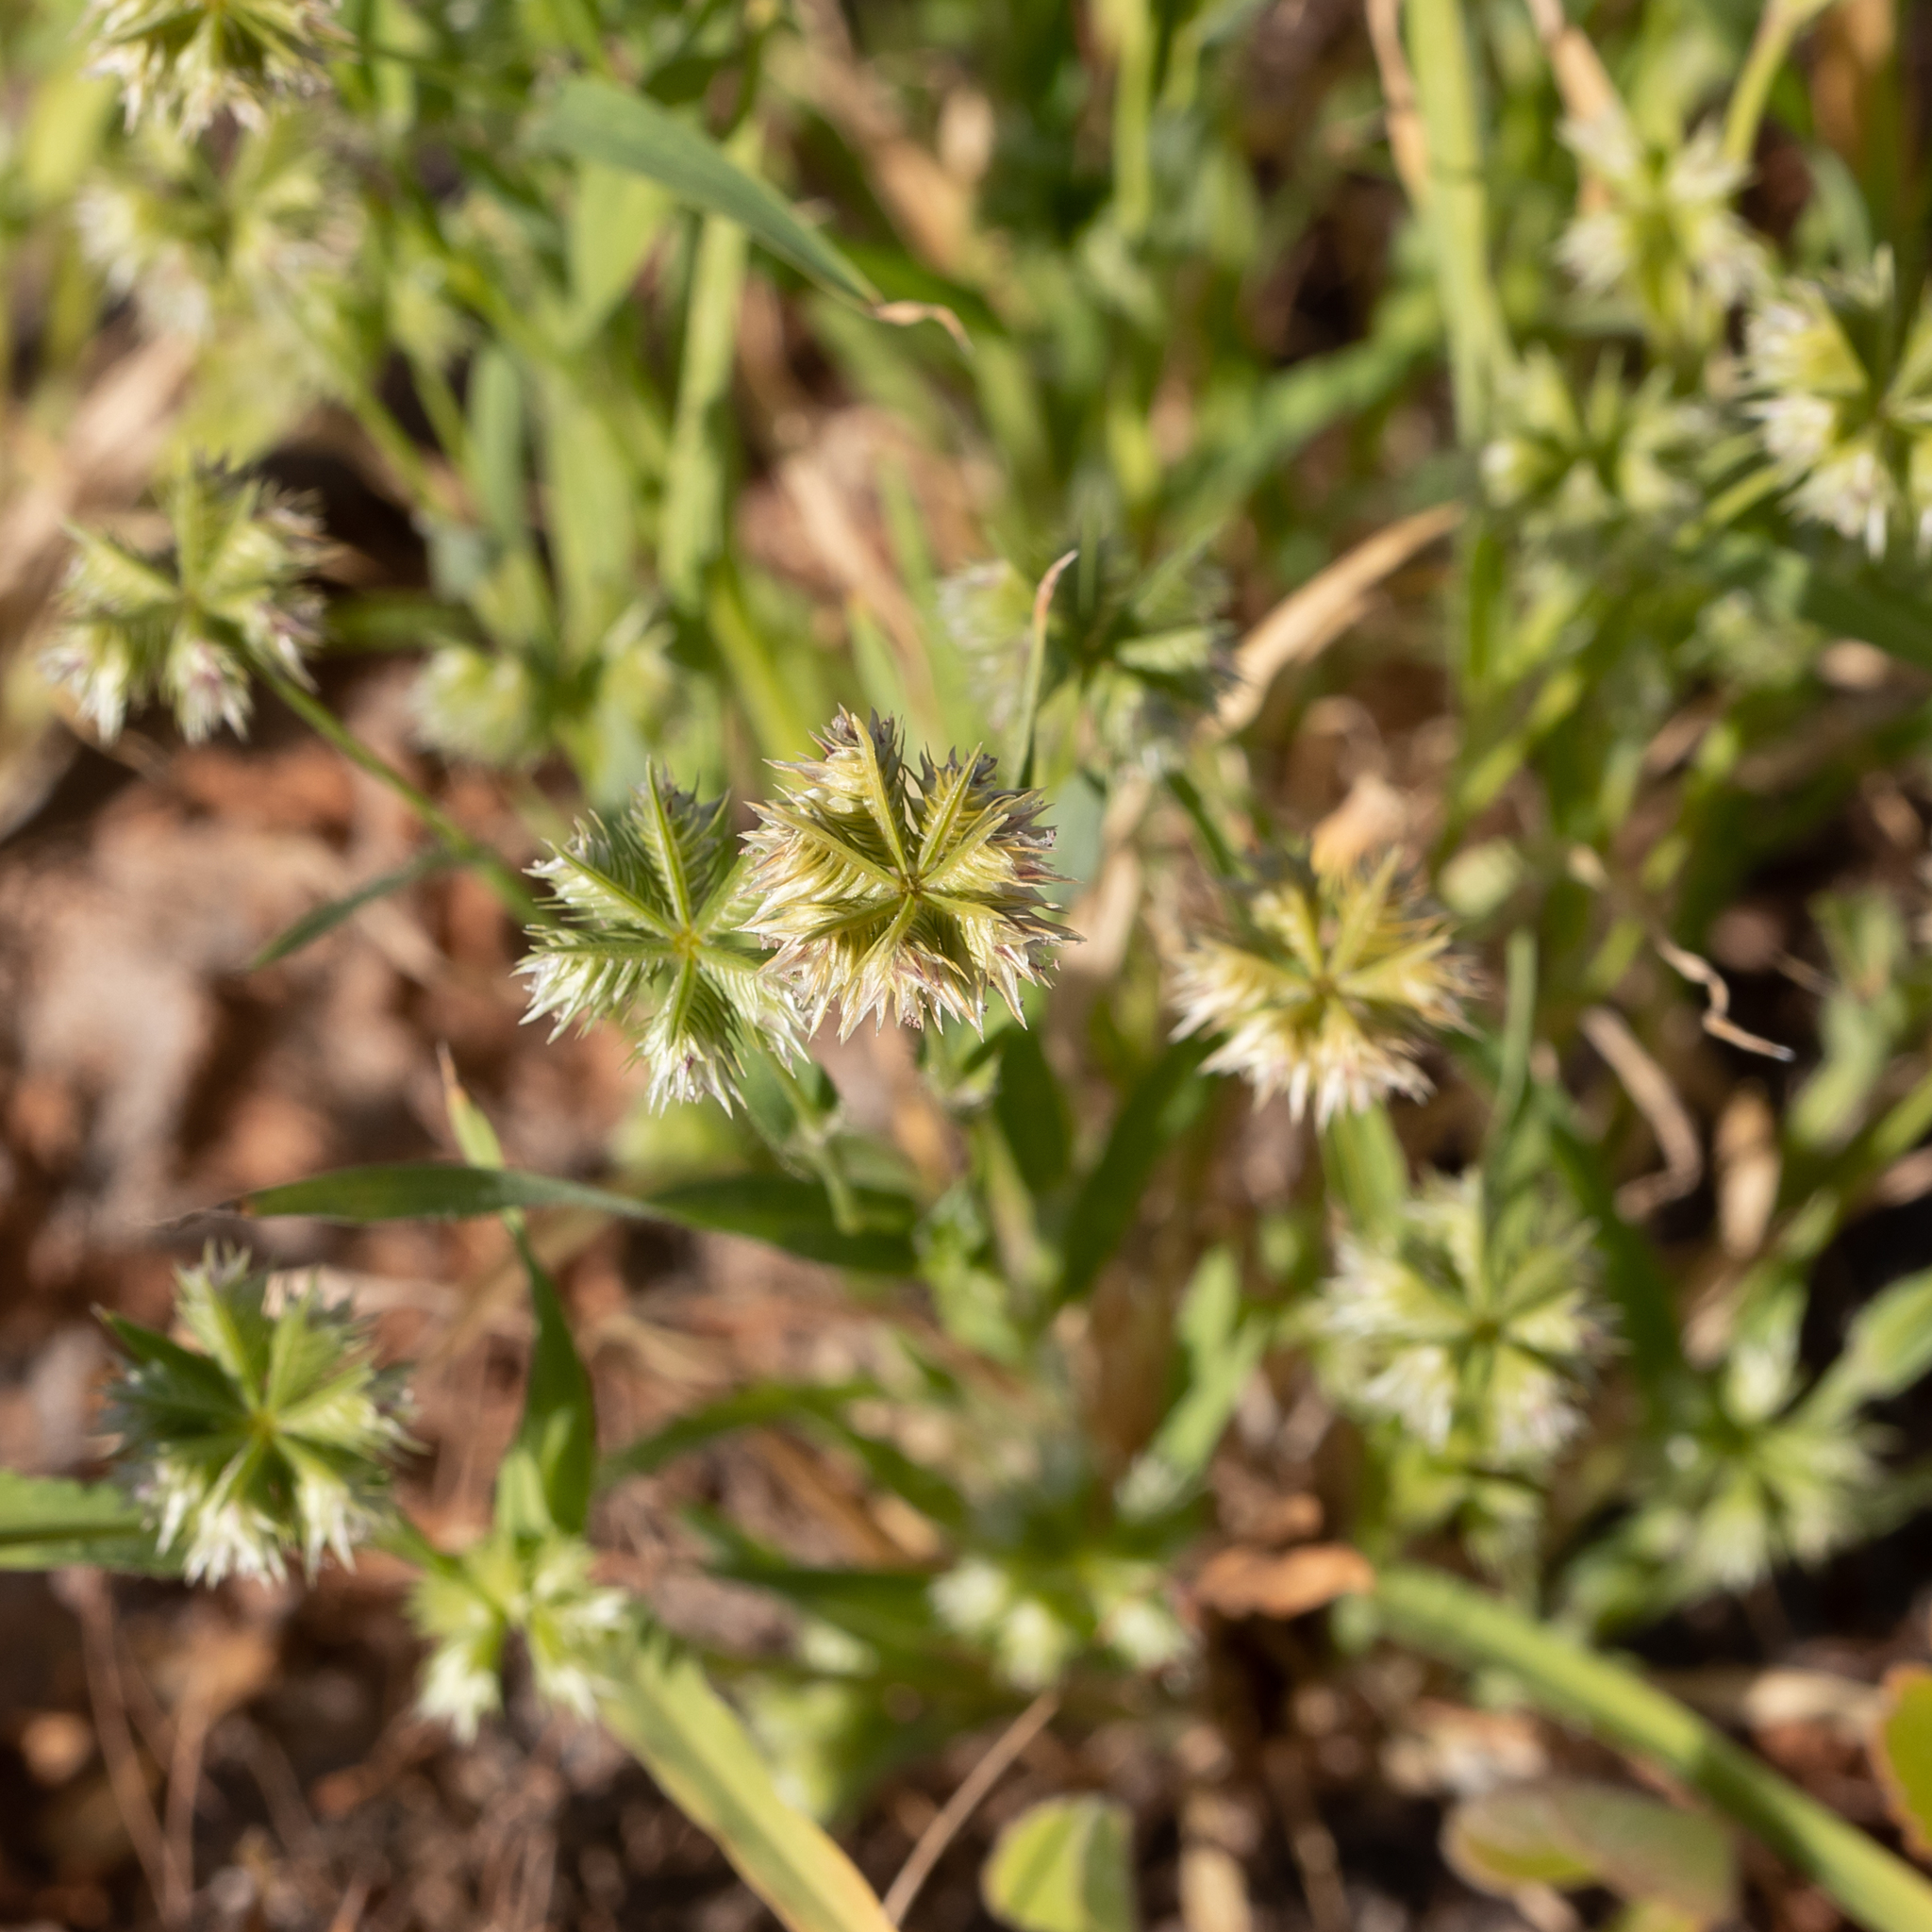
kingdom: Plantae
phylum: Tracheophyta
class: Liliopsida
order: Poales
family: Poaceae
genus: Dactyloctenium
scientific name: Dactyloctenium radulans
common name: Button-grass
